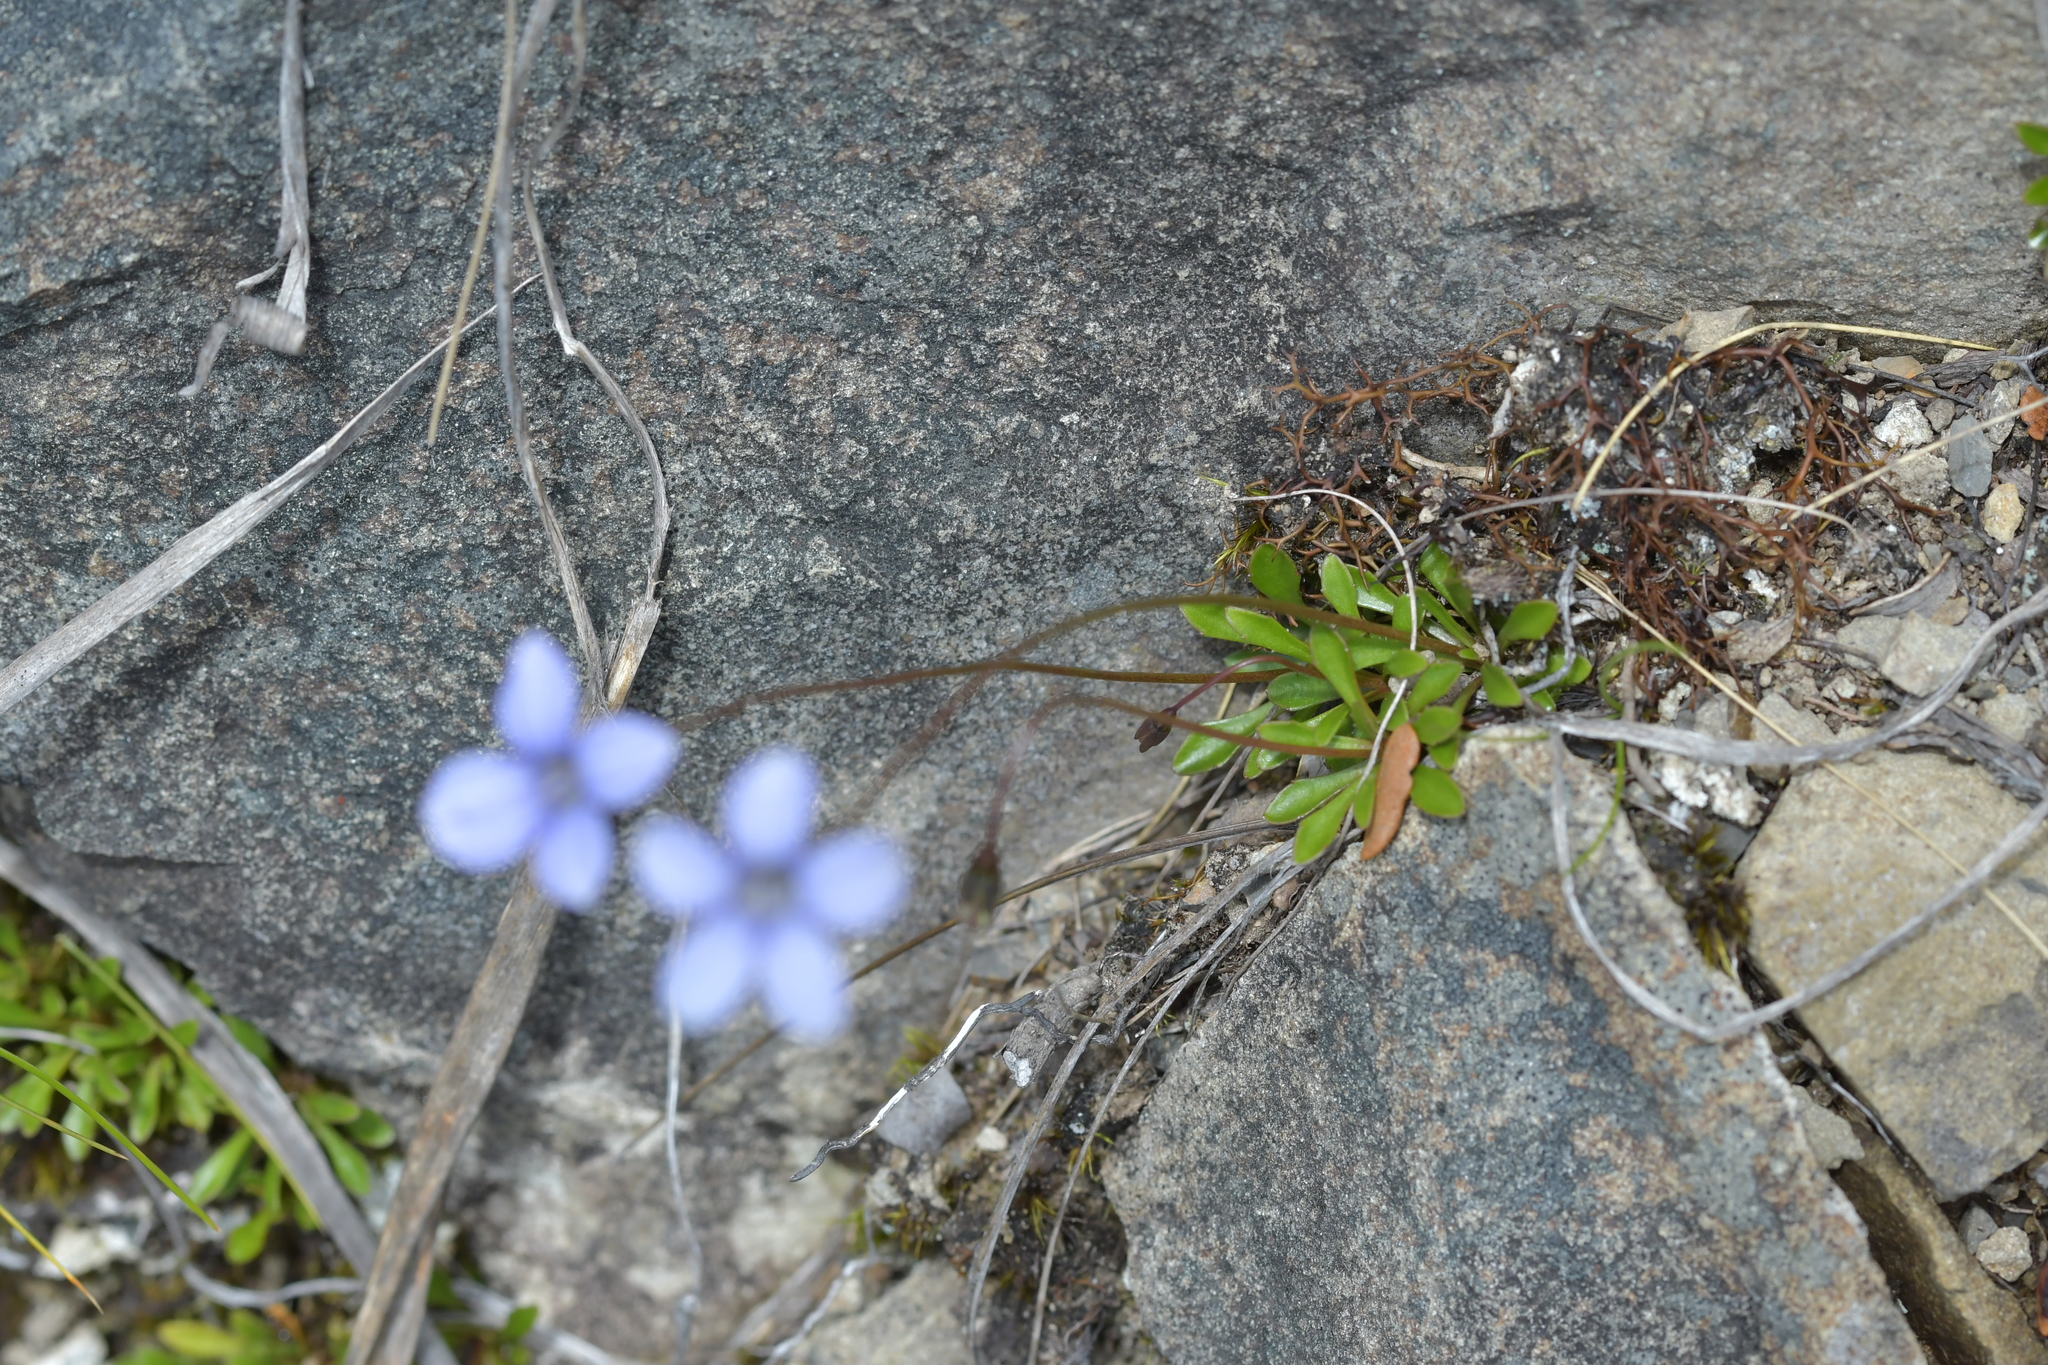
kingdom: Plantae
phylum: Tracheophyta
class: Magnoliopsida
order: Asterales
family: Campanulaceae
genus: Wahlenbergia
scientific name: Wahlenbergia albomarginata
